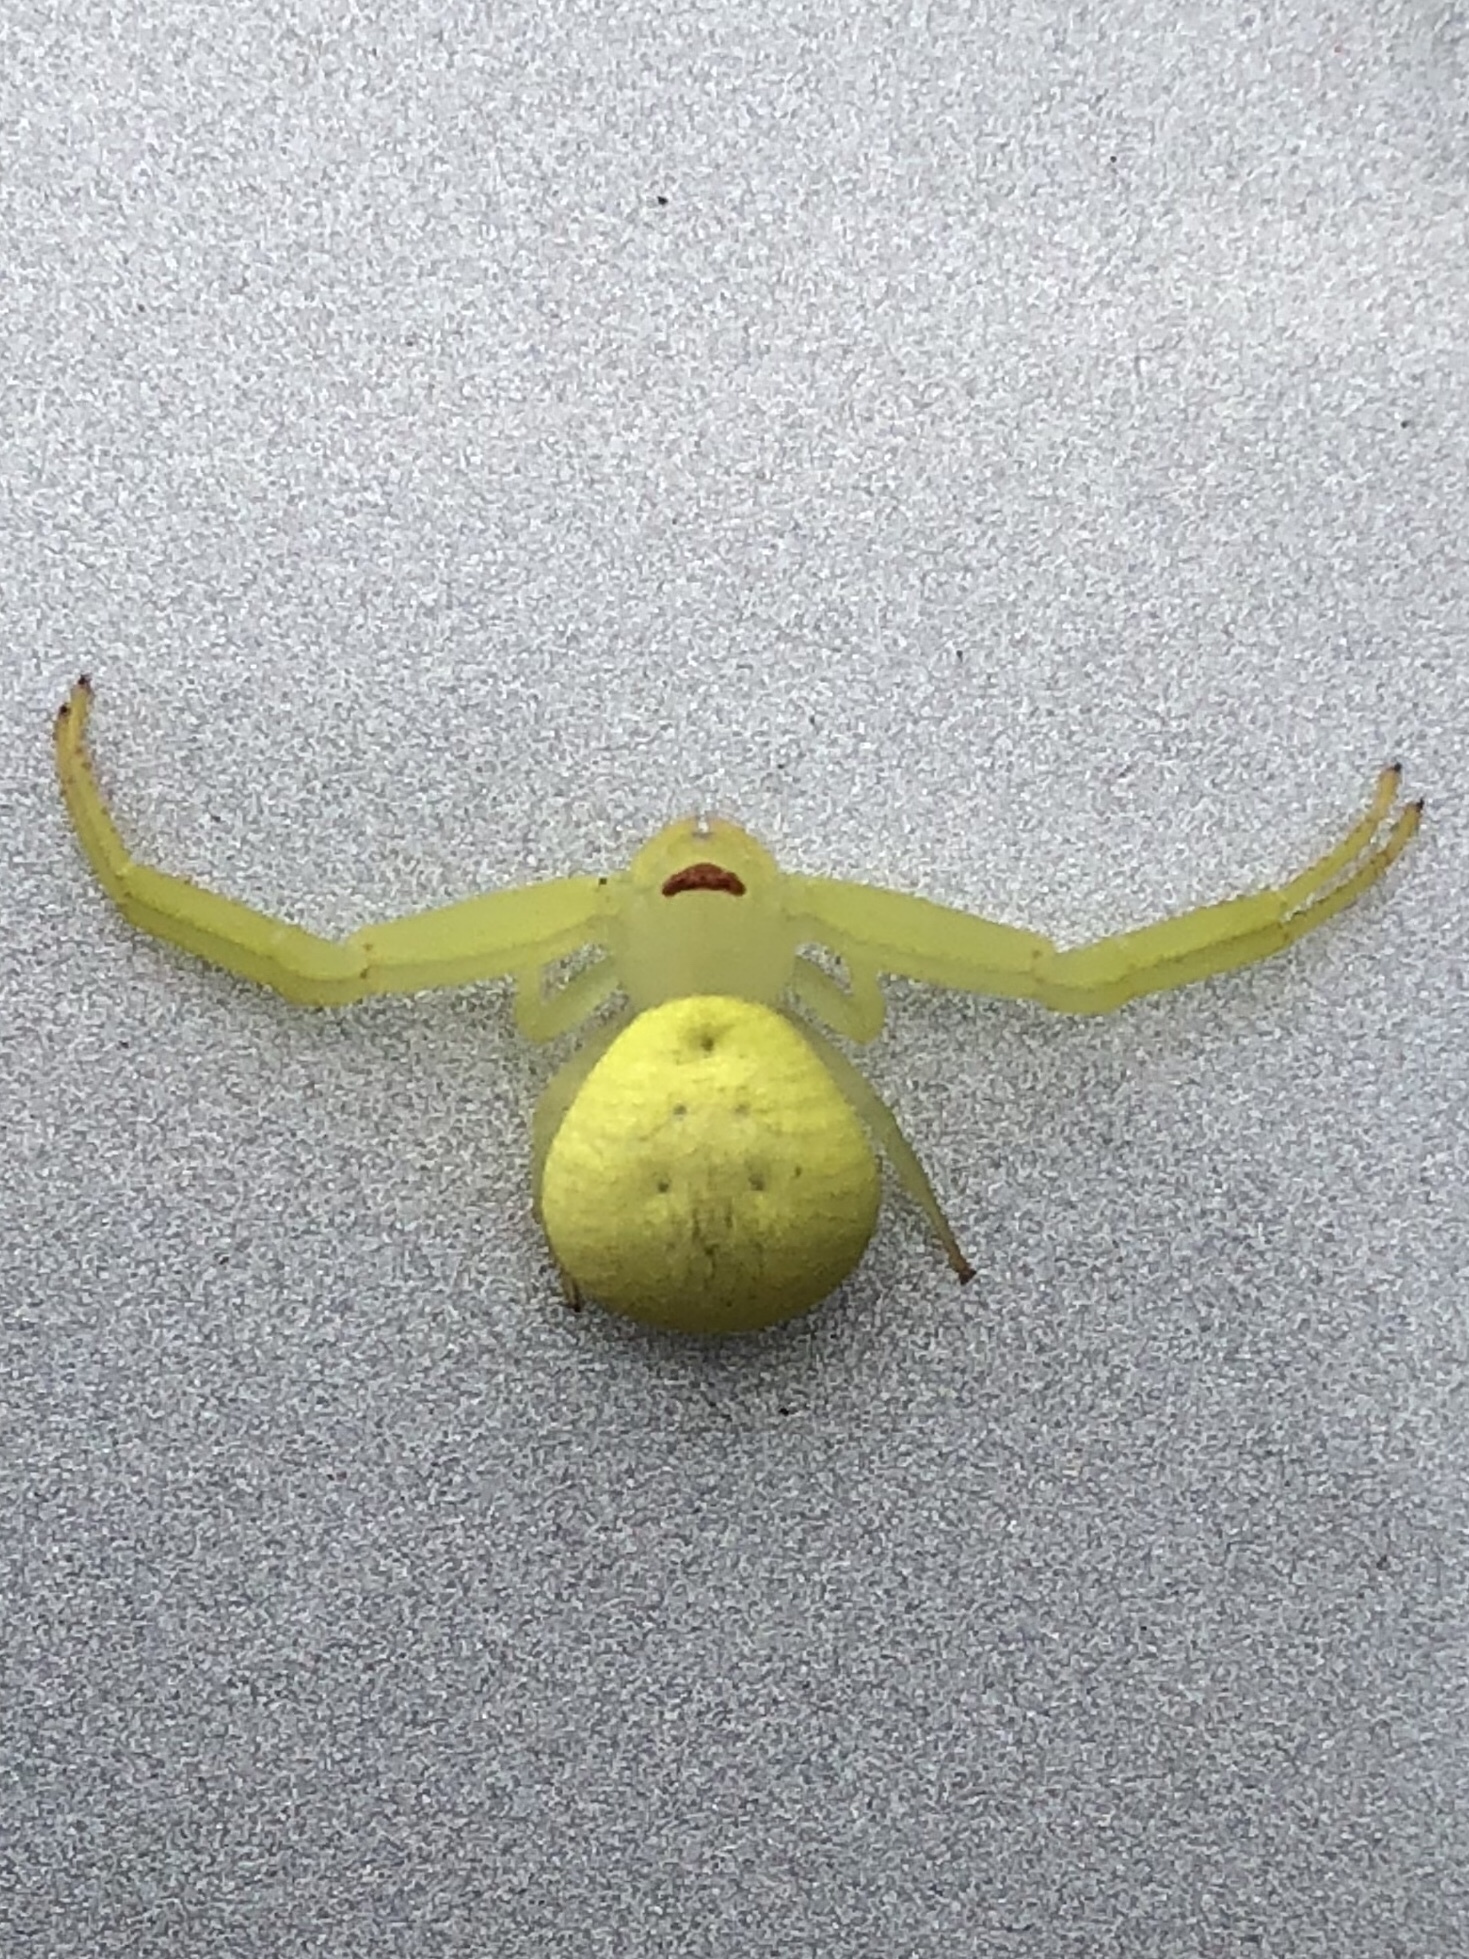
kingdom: Animalia
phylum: Arthropoda
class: Arachnida
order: Araneae
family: Thomisidae
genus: Misumessus
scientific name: Misumessus tamiami
